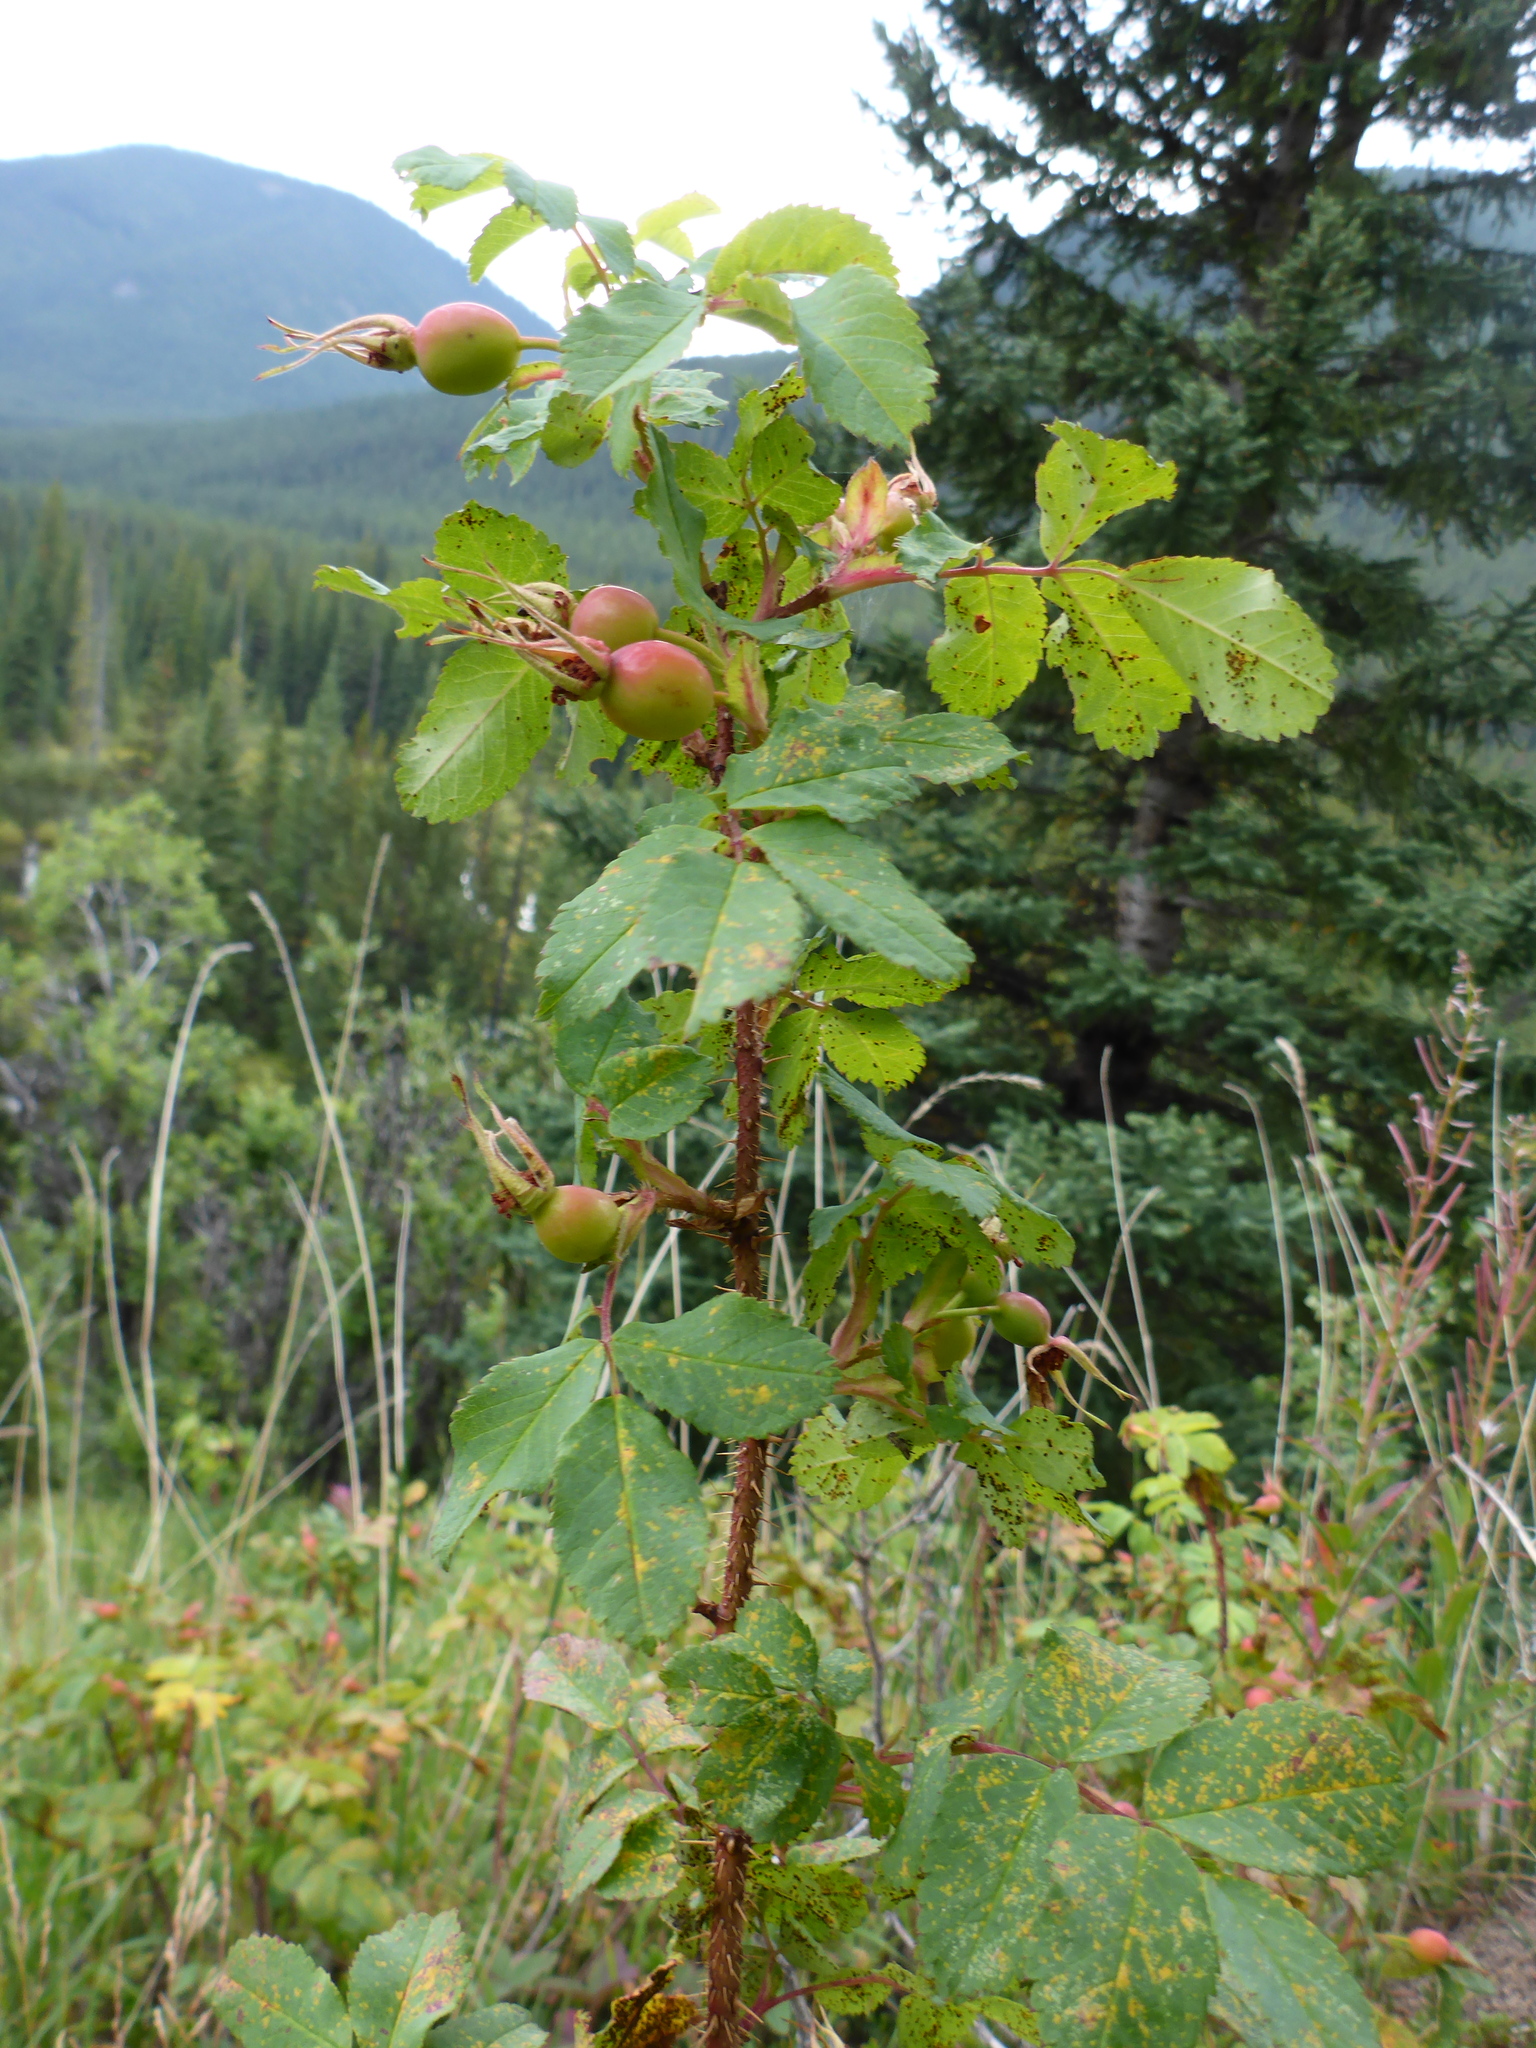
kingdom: Plantae
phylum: Tracheophyta
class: Magnoliopsida
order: Rosales
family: Rosaceae
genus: Rosa
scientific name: Rosa acicularis
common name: Prickly rose
